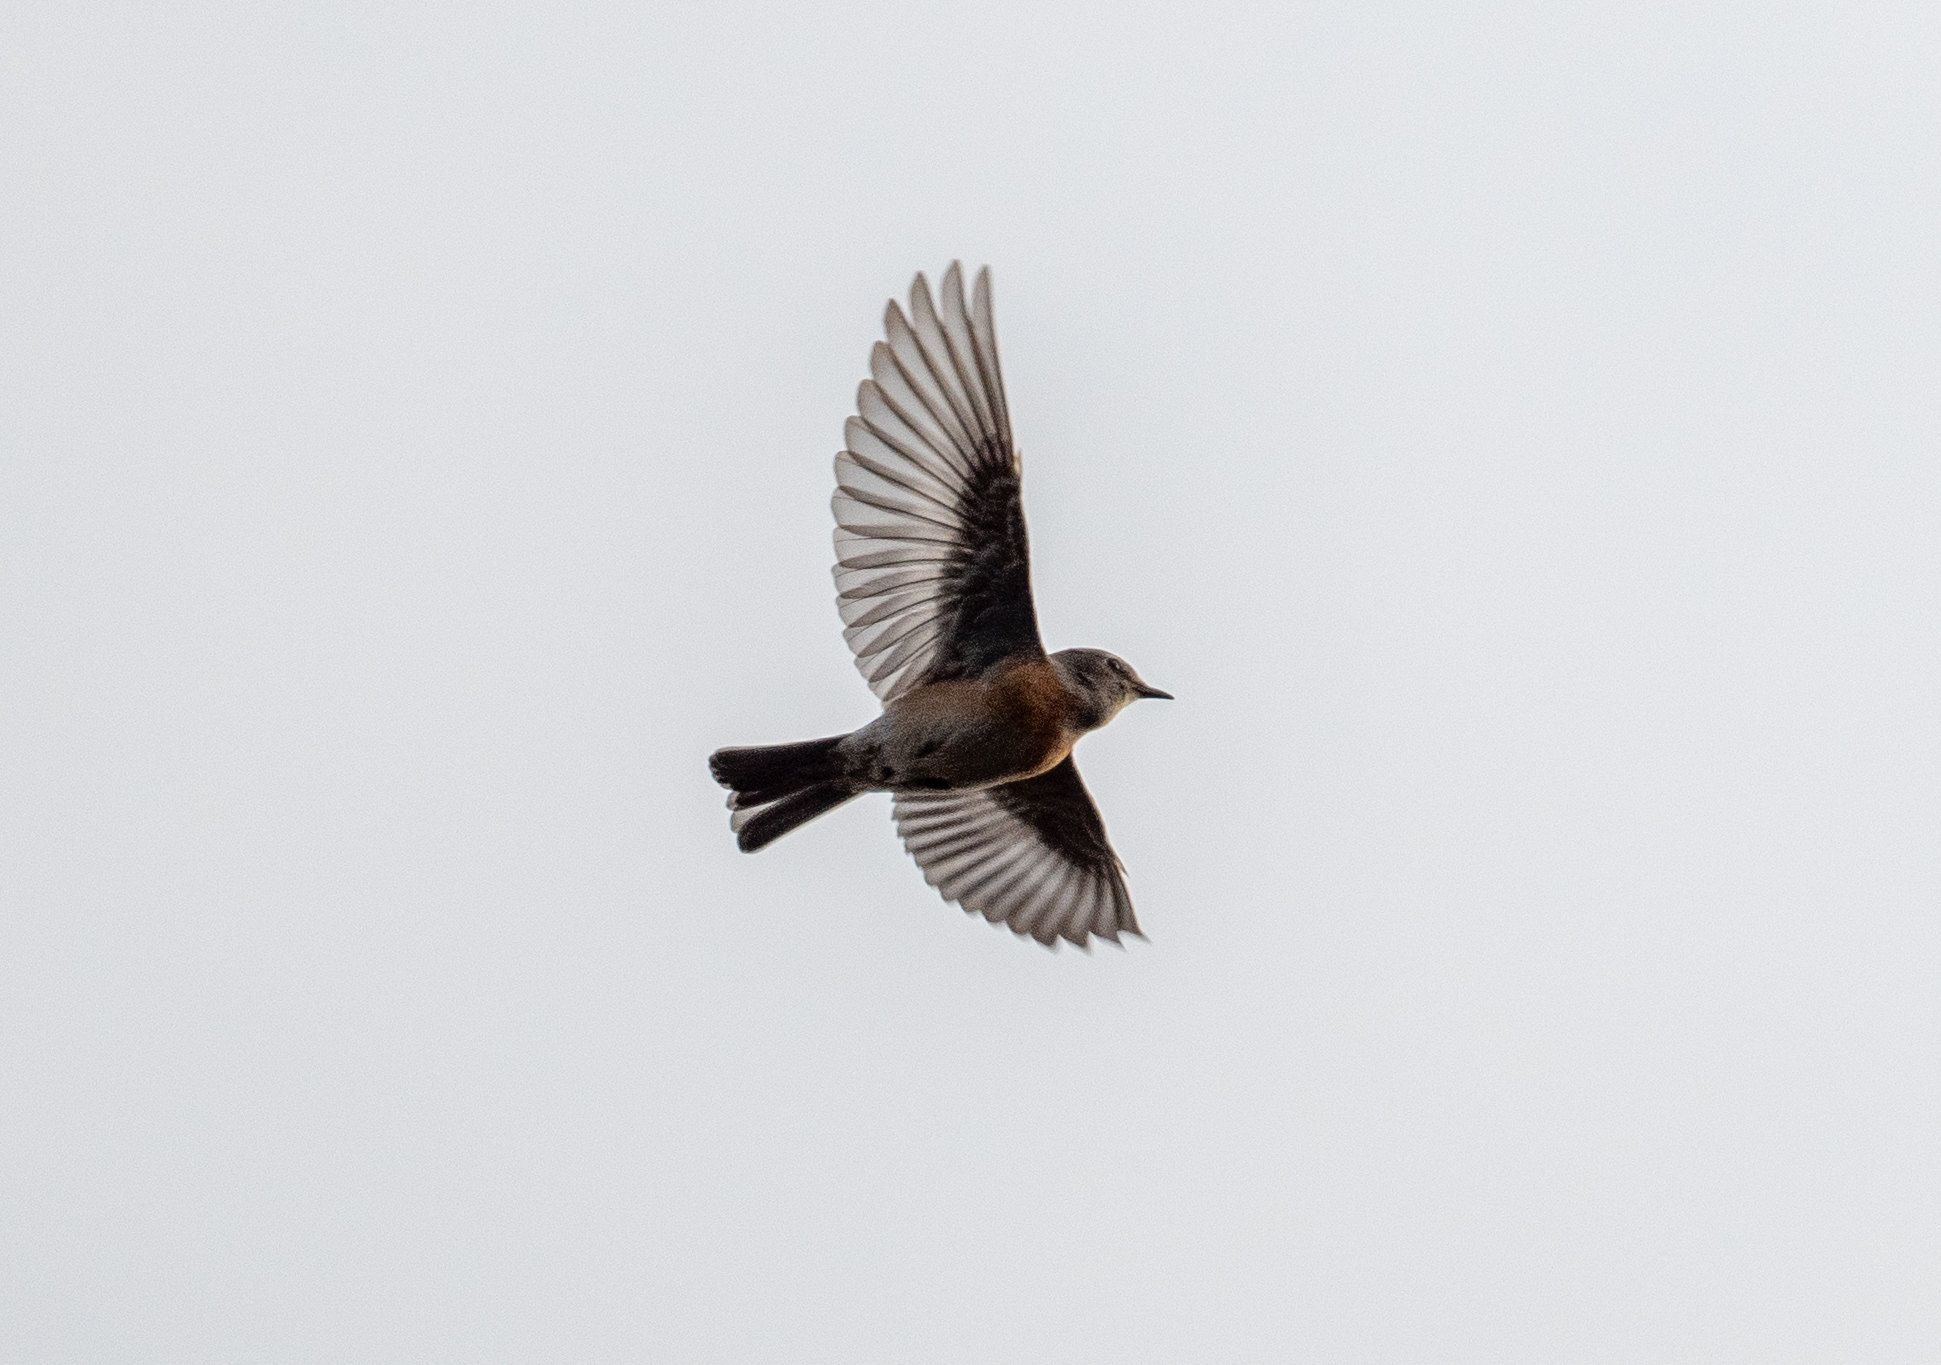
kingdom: Animalia
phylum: Chordata
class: Aves
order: Passeriformes
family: Turdidae
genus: Sialia
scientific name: Sialia mexicana
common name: Western bluebird
